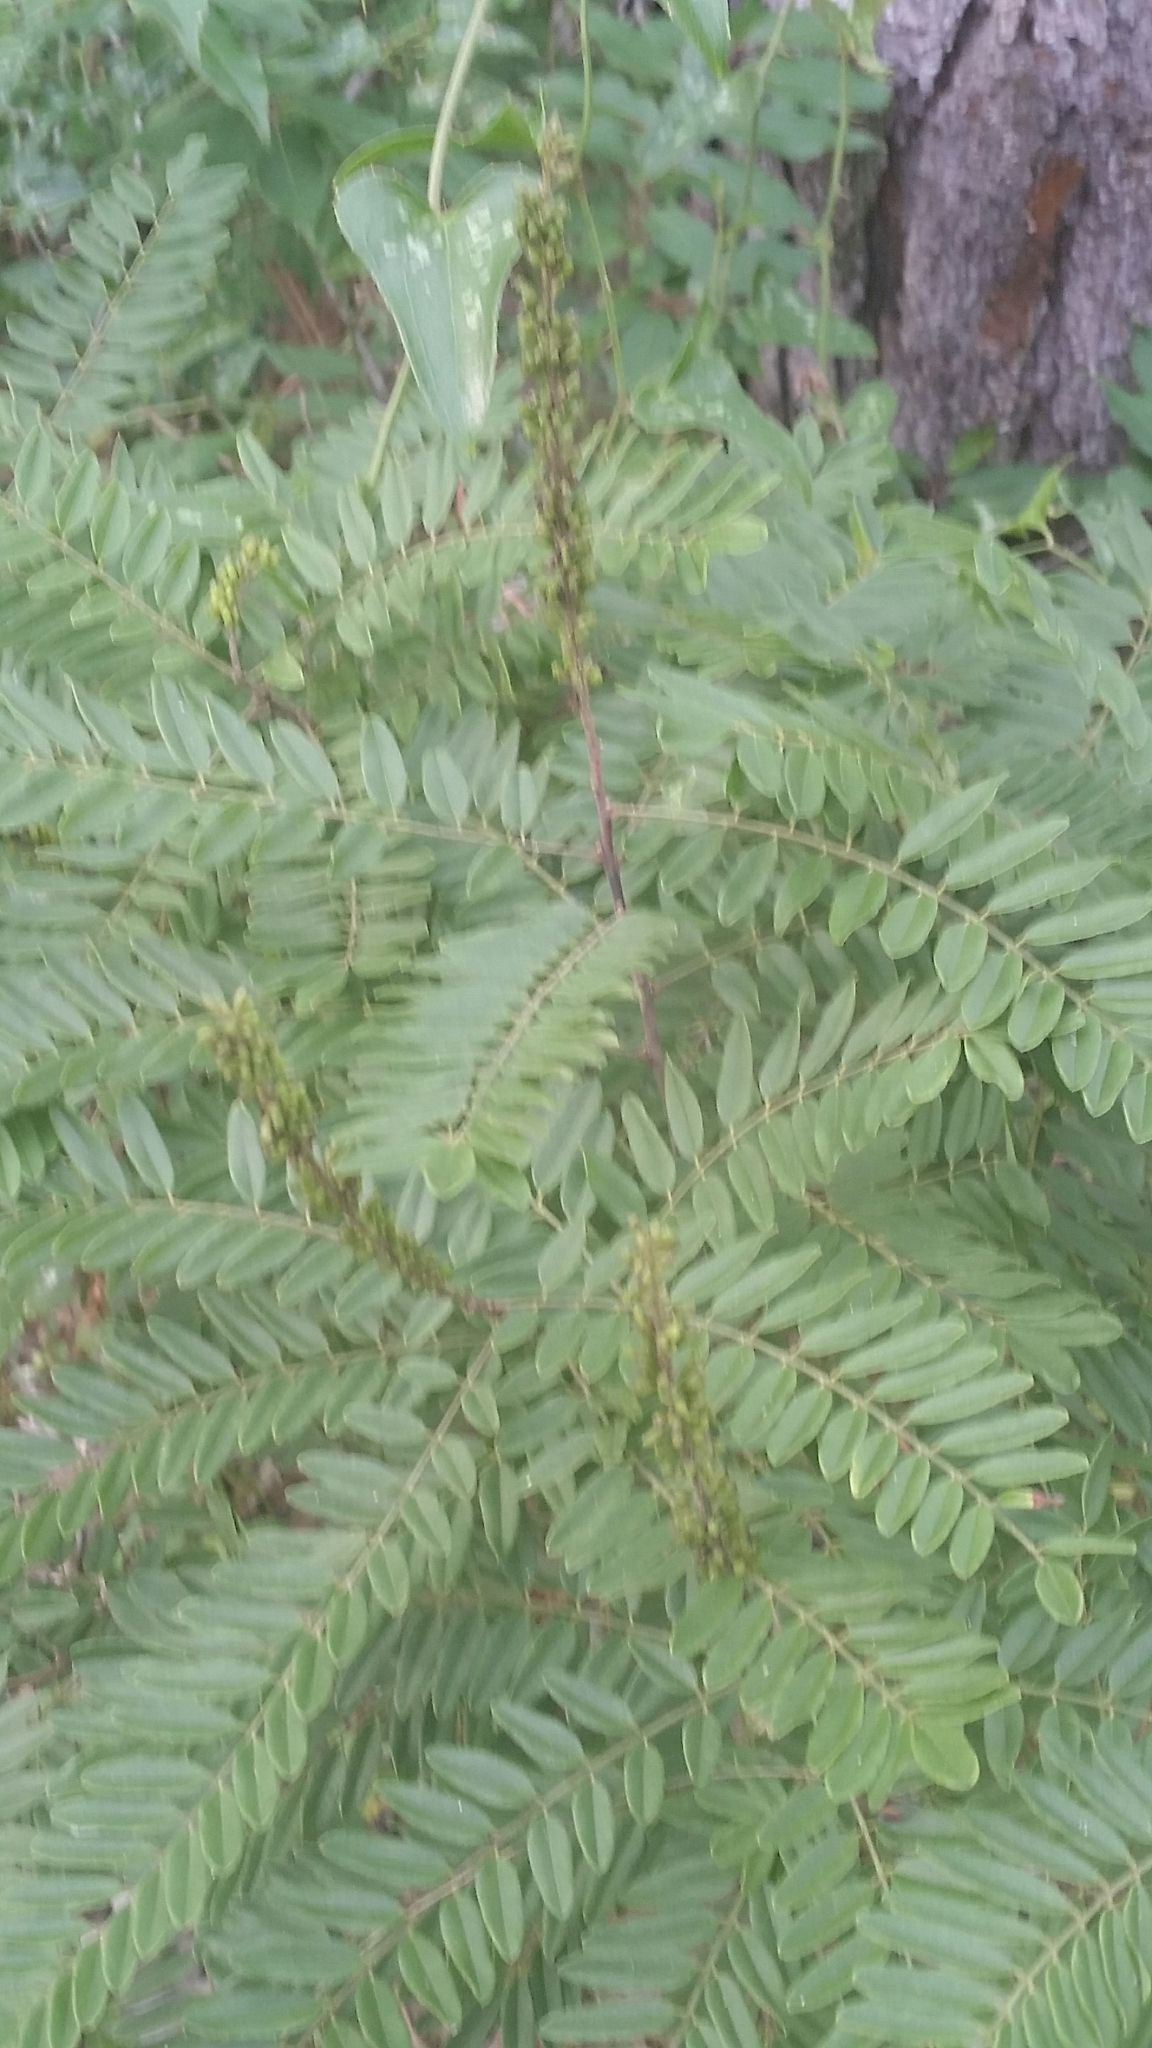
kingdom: Plantae
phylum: Tracheophyta
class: Magnoliopsida
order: Fabales
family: Fabaceae
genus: Amorpha
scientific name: Amorpha fruticosa
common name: False indigo
